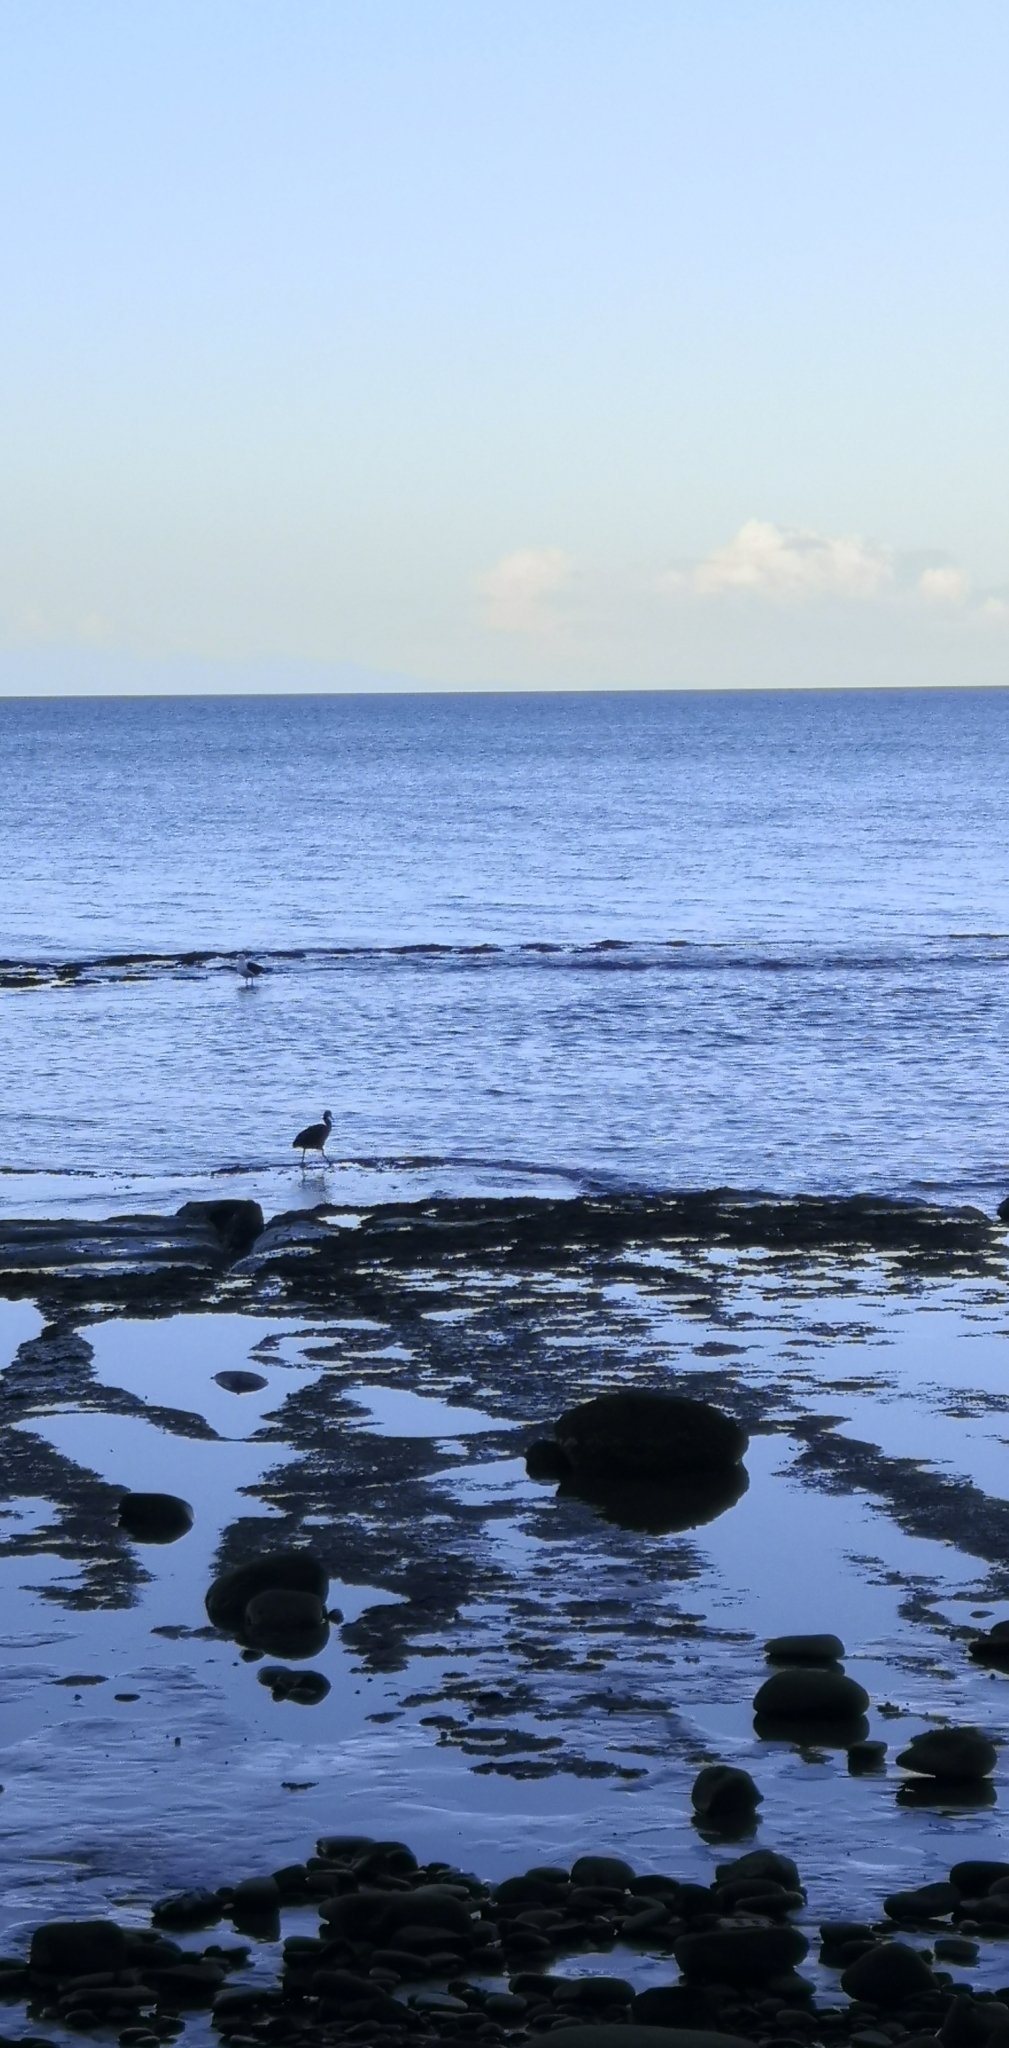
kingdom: Animalia
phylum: Chordata
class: Aves
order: Pelecaniformes
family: Ardeidae
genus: Egretta
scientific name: Egretta sacra
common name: Pacific reef heron
